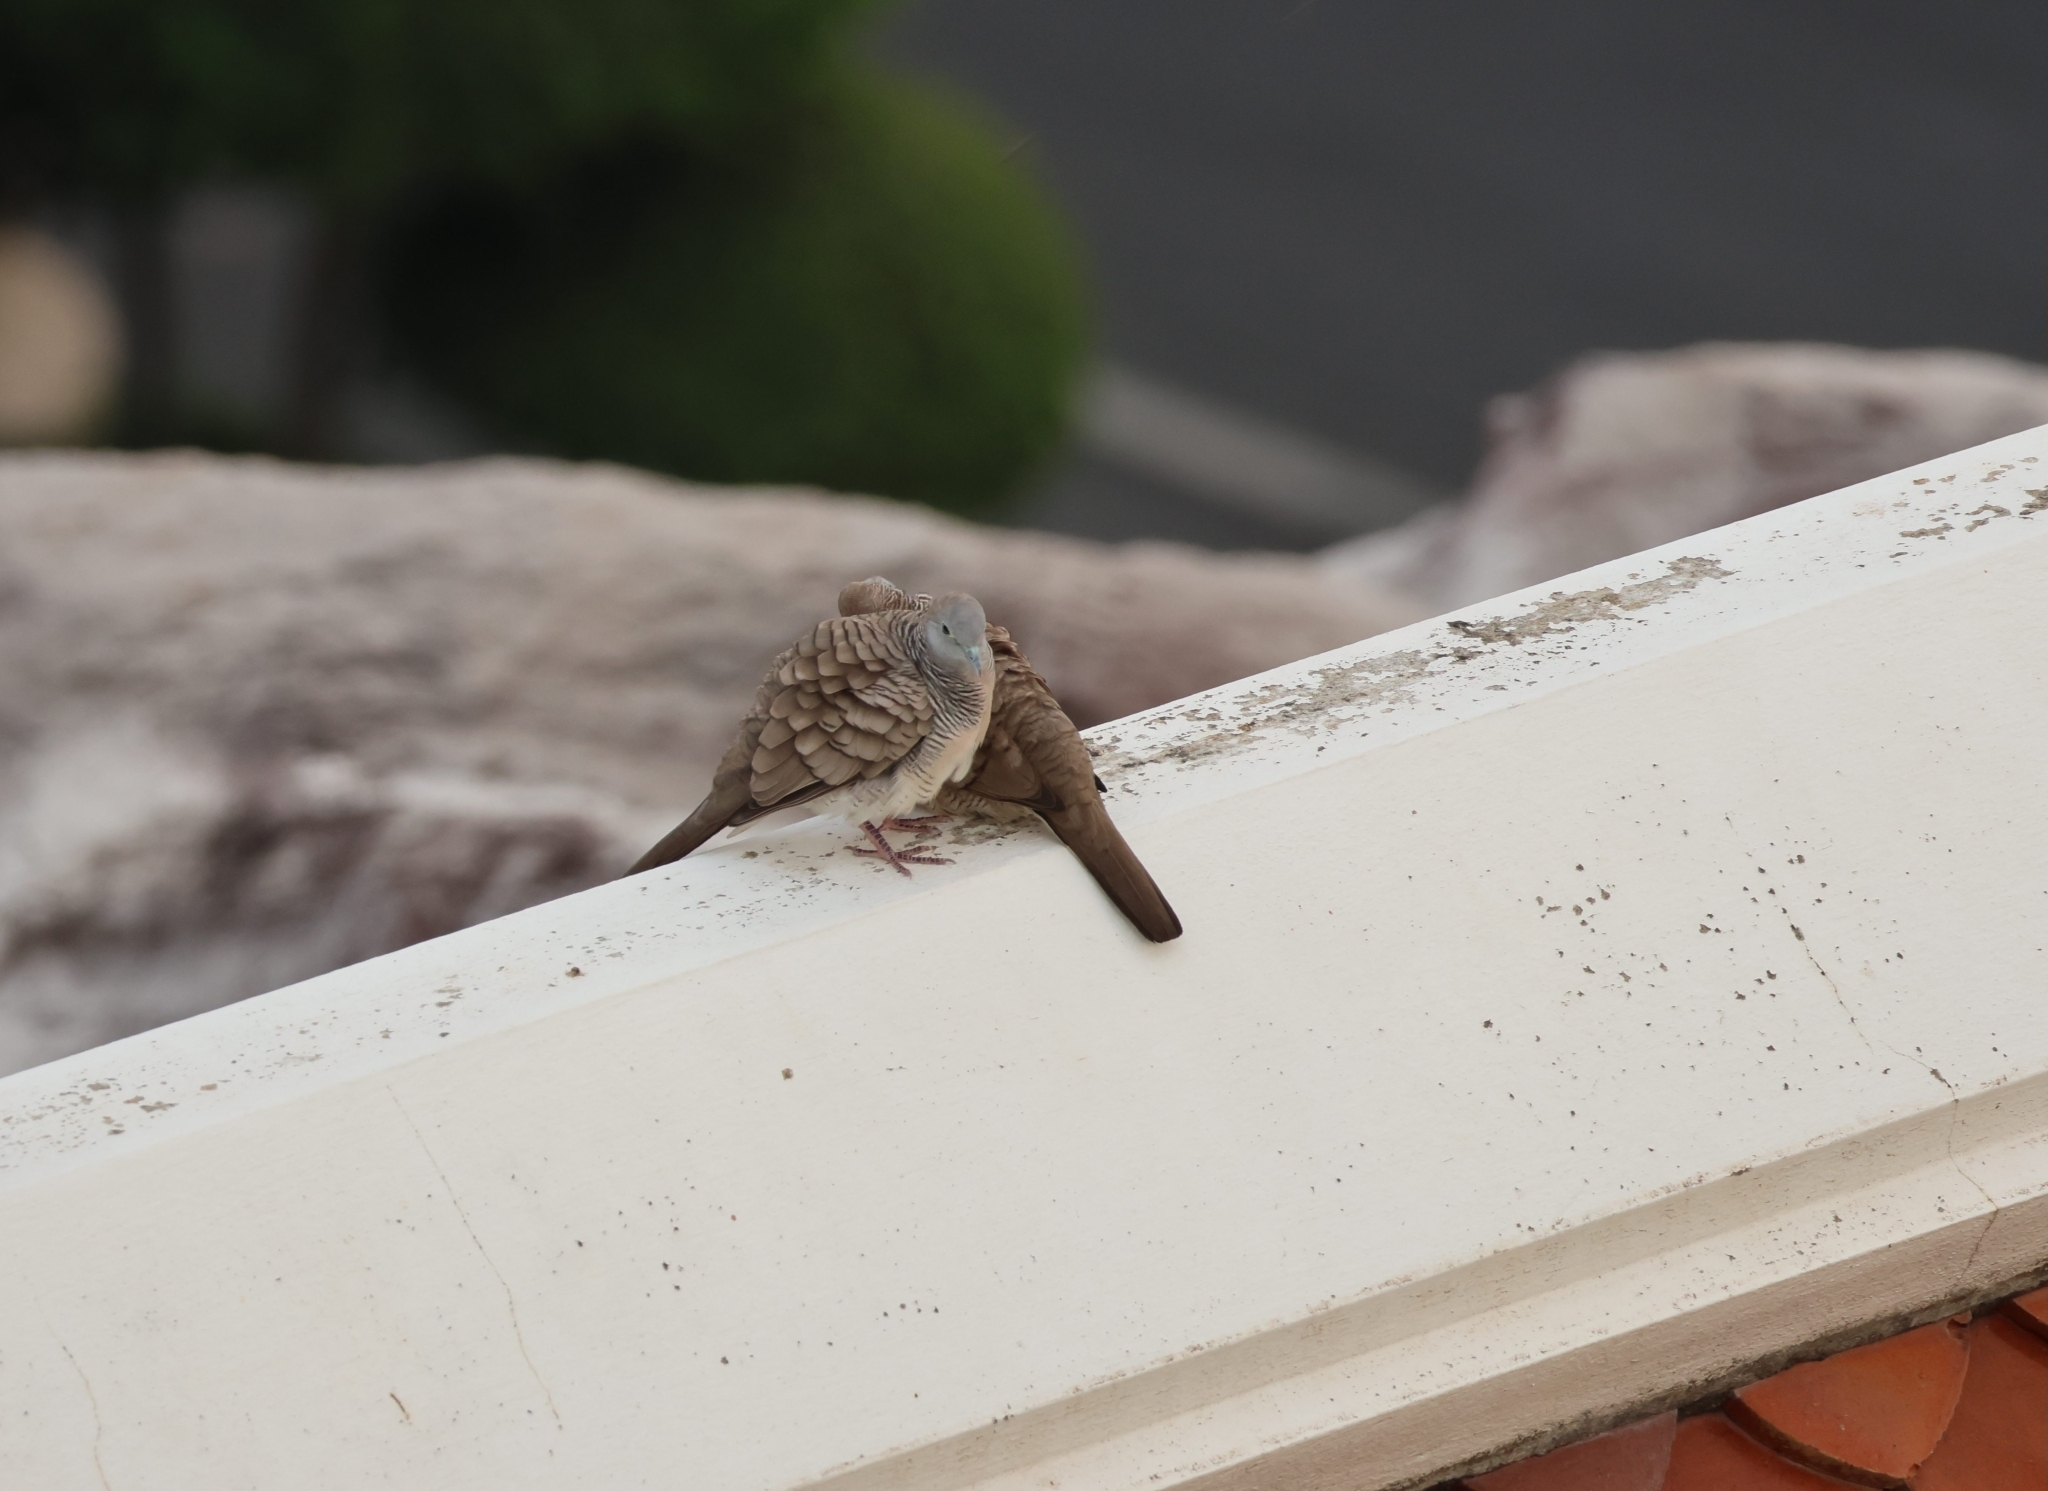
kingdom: Animalia
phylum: Chordata
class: Aves
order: Columbiformes
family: Columbidae
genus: Geopelia
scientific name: Geopelia striata
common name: Zebra dove
